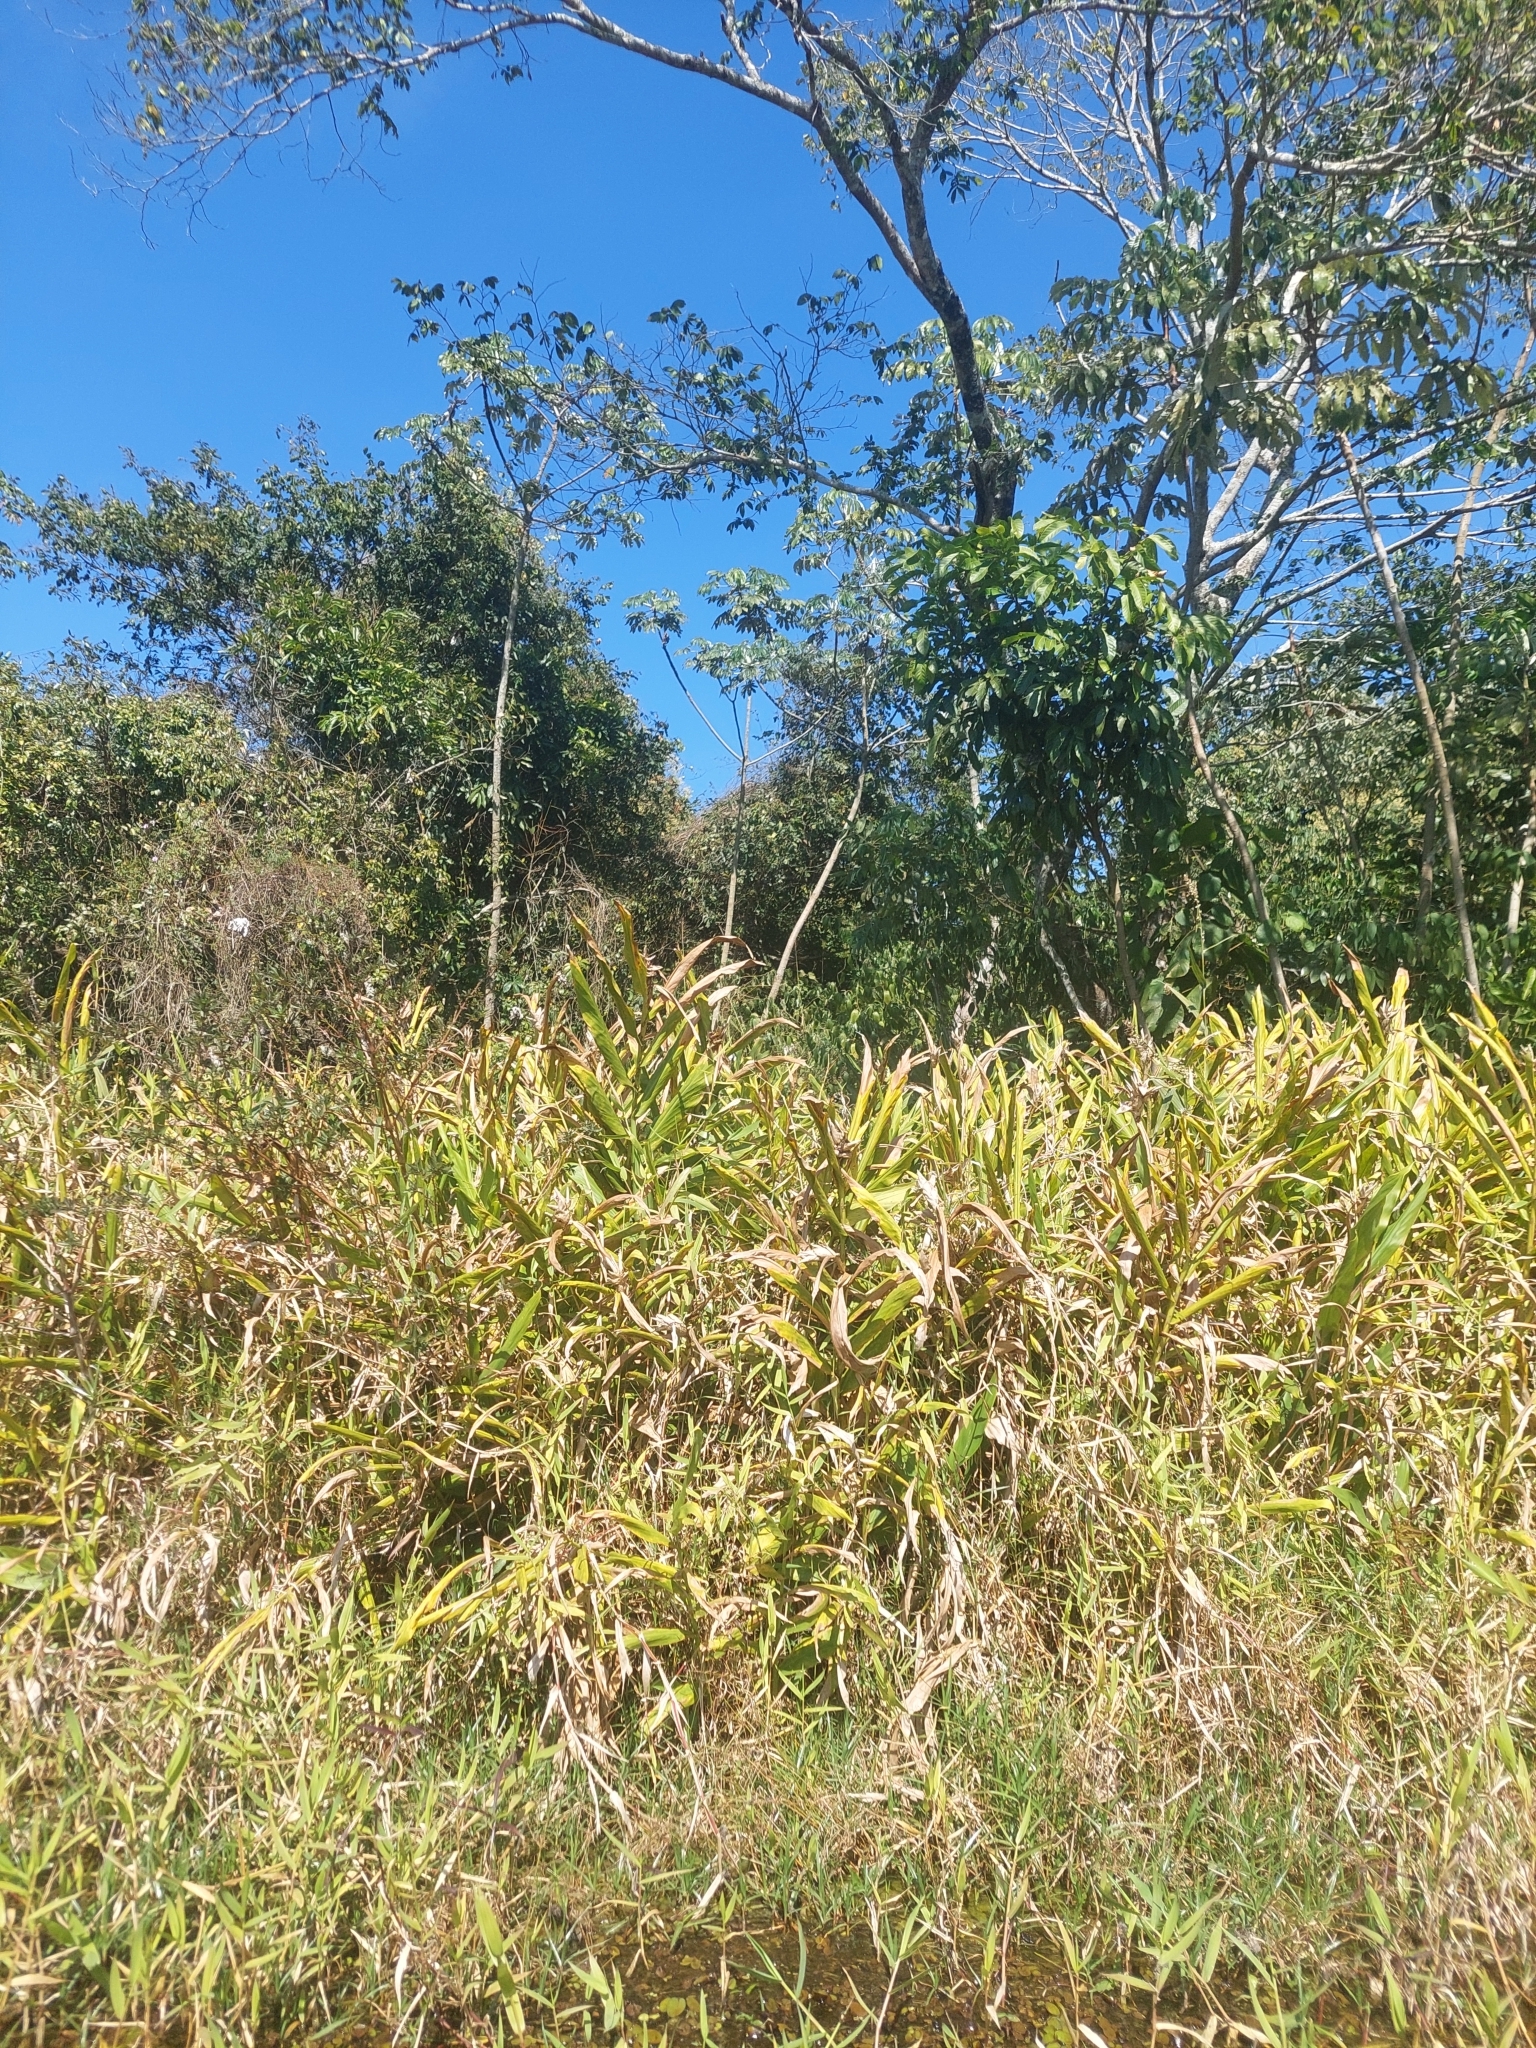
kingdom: Plantae
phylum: Tracheophyta
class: Liliopsida
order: Zingiberales
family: Zingiberaceae
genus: Hedychium
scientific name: Hedychium coronarium
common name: White garland-lily
